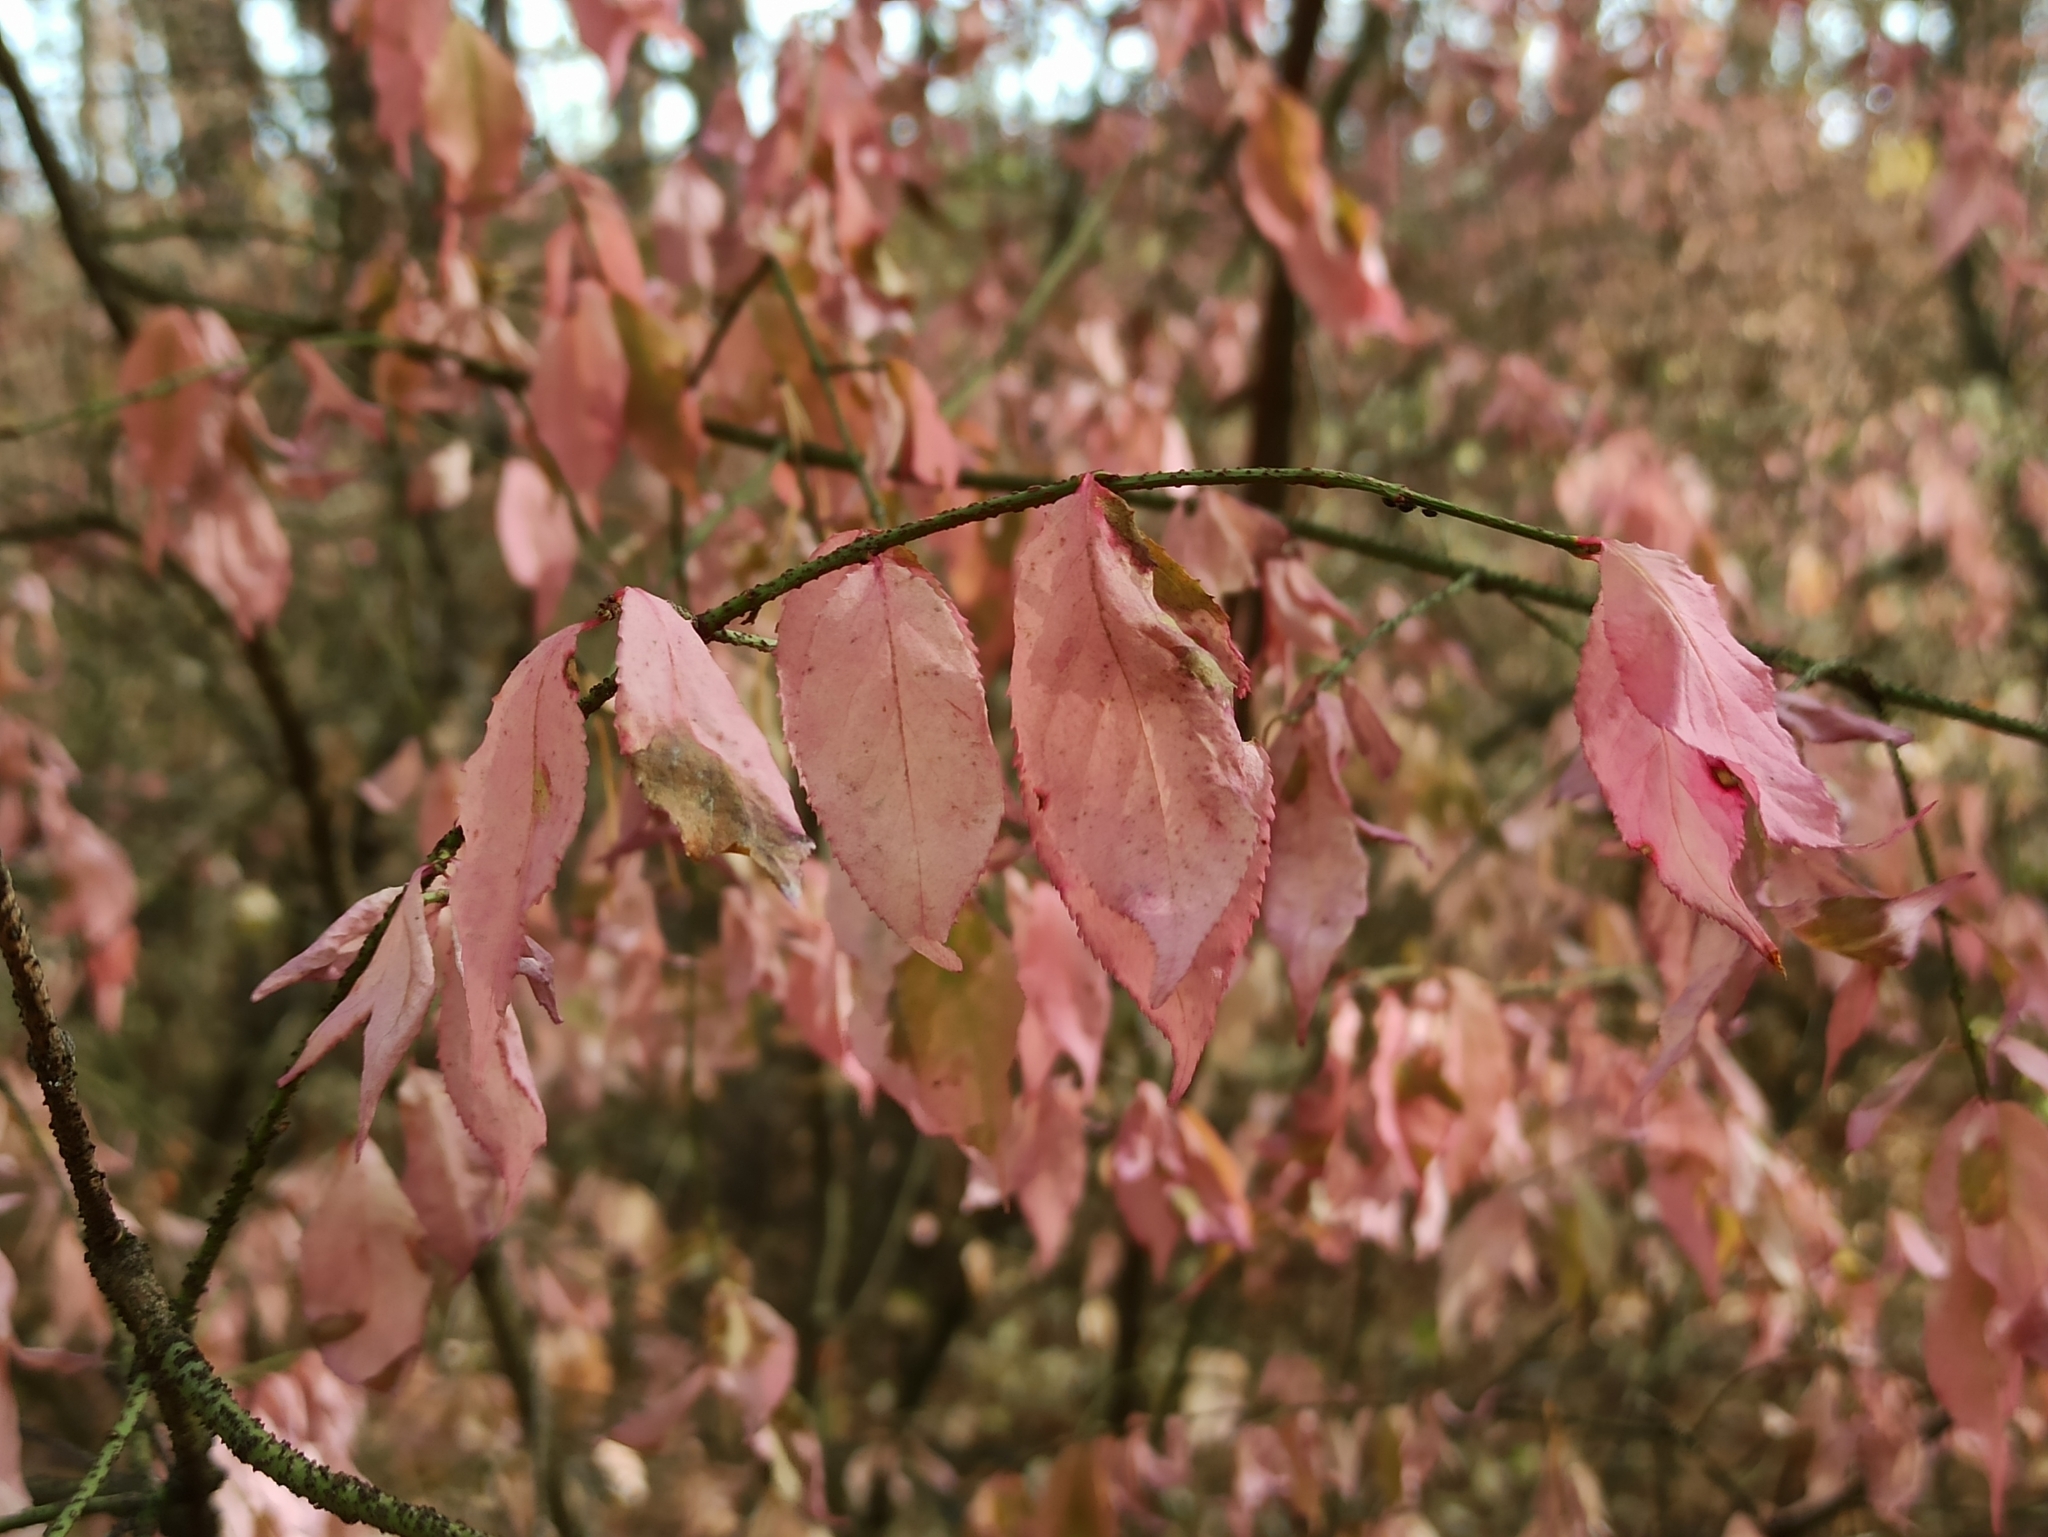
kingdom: Plantae
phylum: Tracheophyta
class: Magnoliopsida
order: Celastrales
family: Celastraceae
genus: Euonymus
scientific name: Euonymus verrucosus
